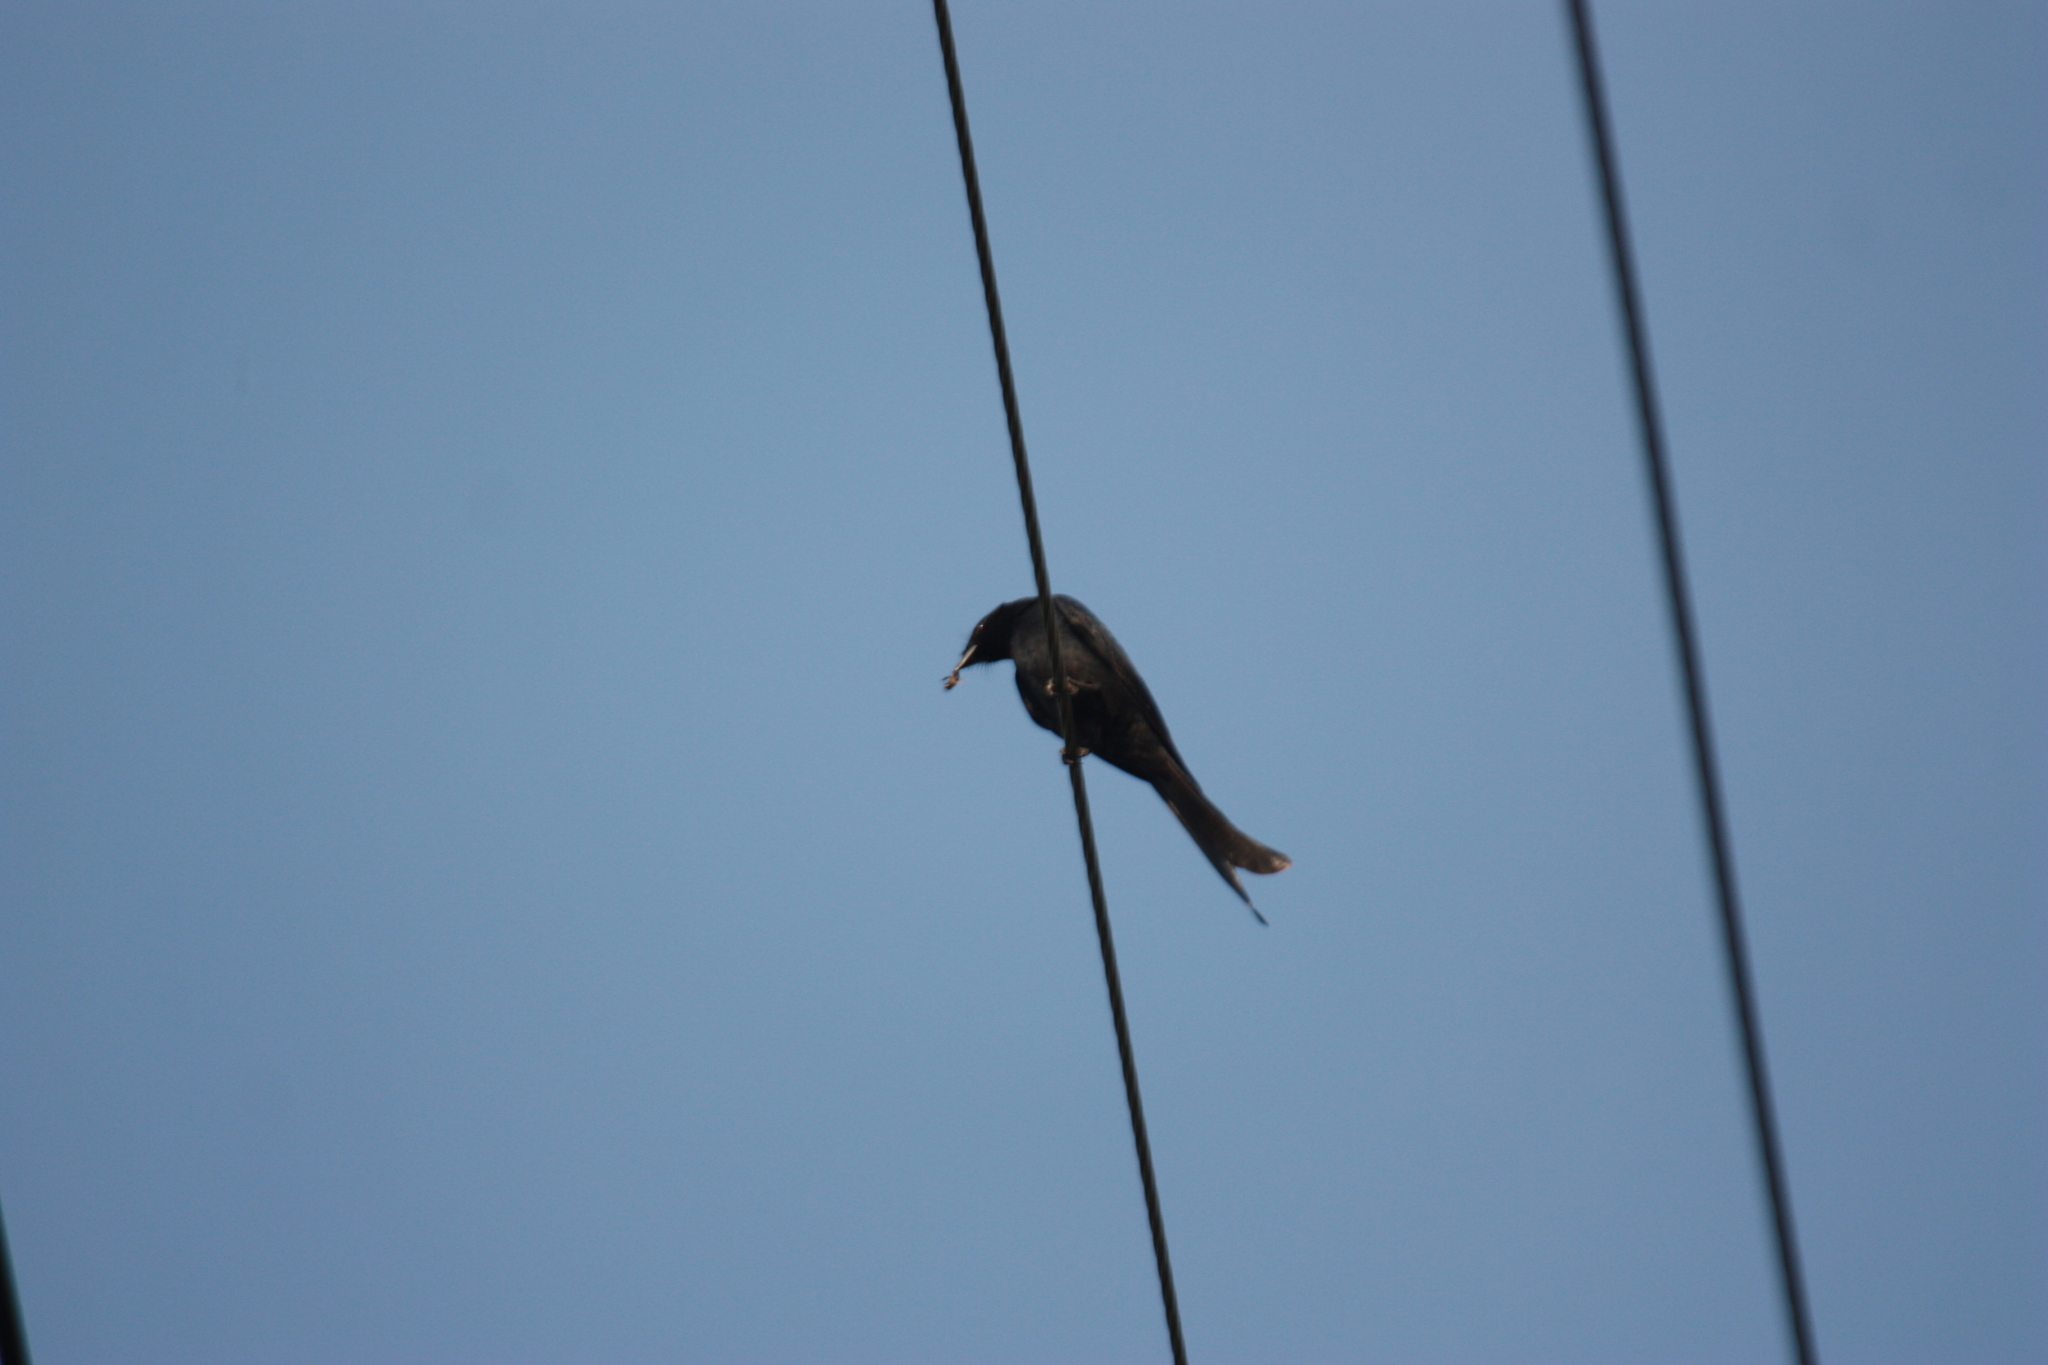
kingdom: Animalia
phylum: Chordata
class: Aves
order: Passeriformes
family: Dicruridae
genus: Dicrurus
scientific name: Dicrurus macrocercus
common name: Black drongo
